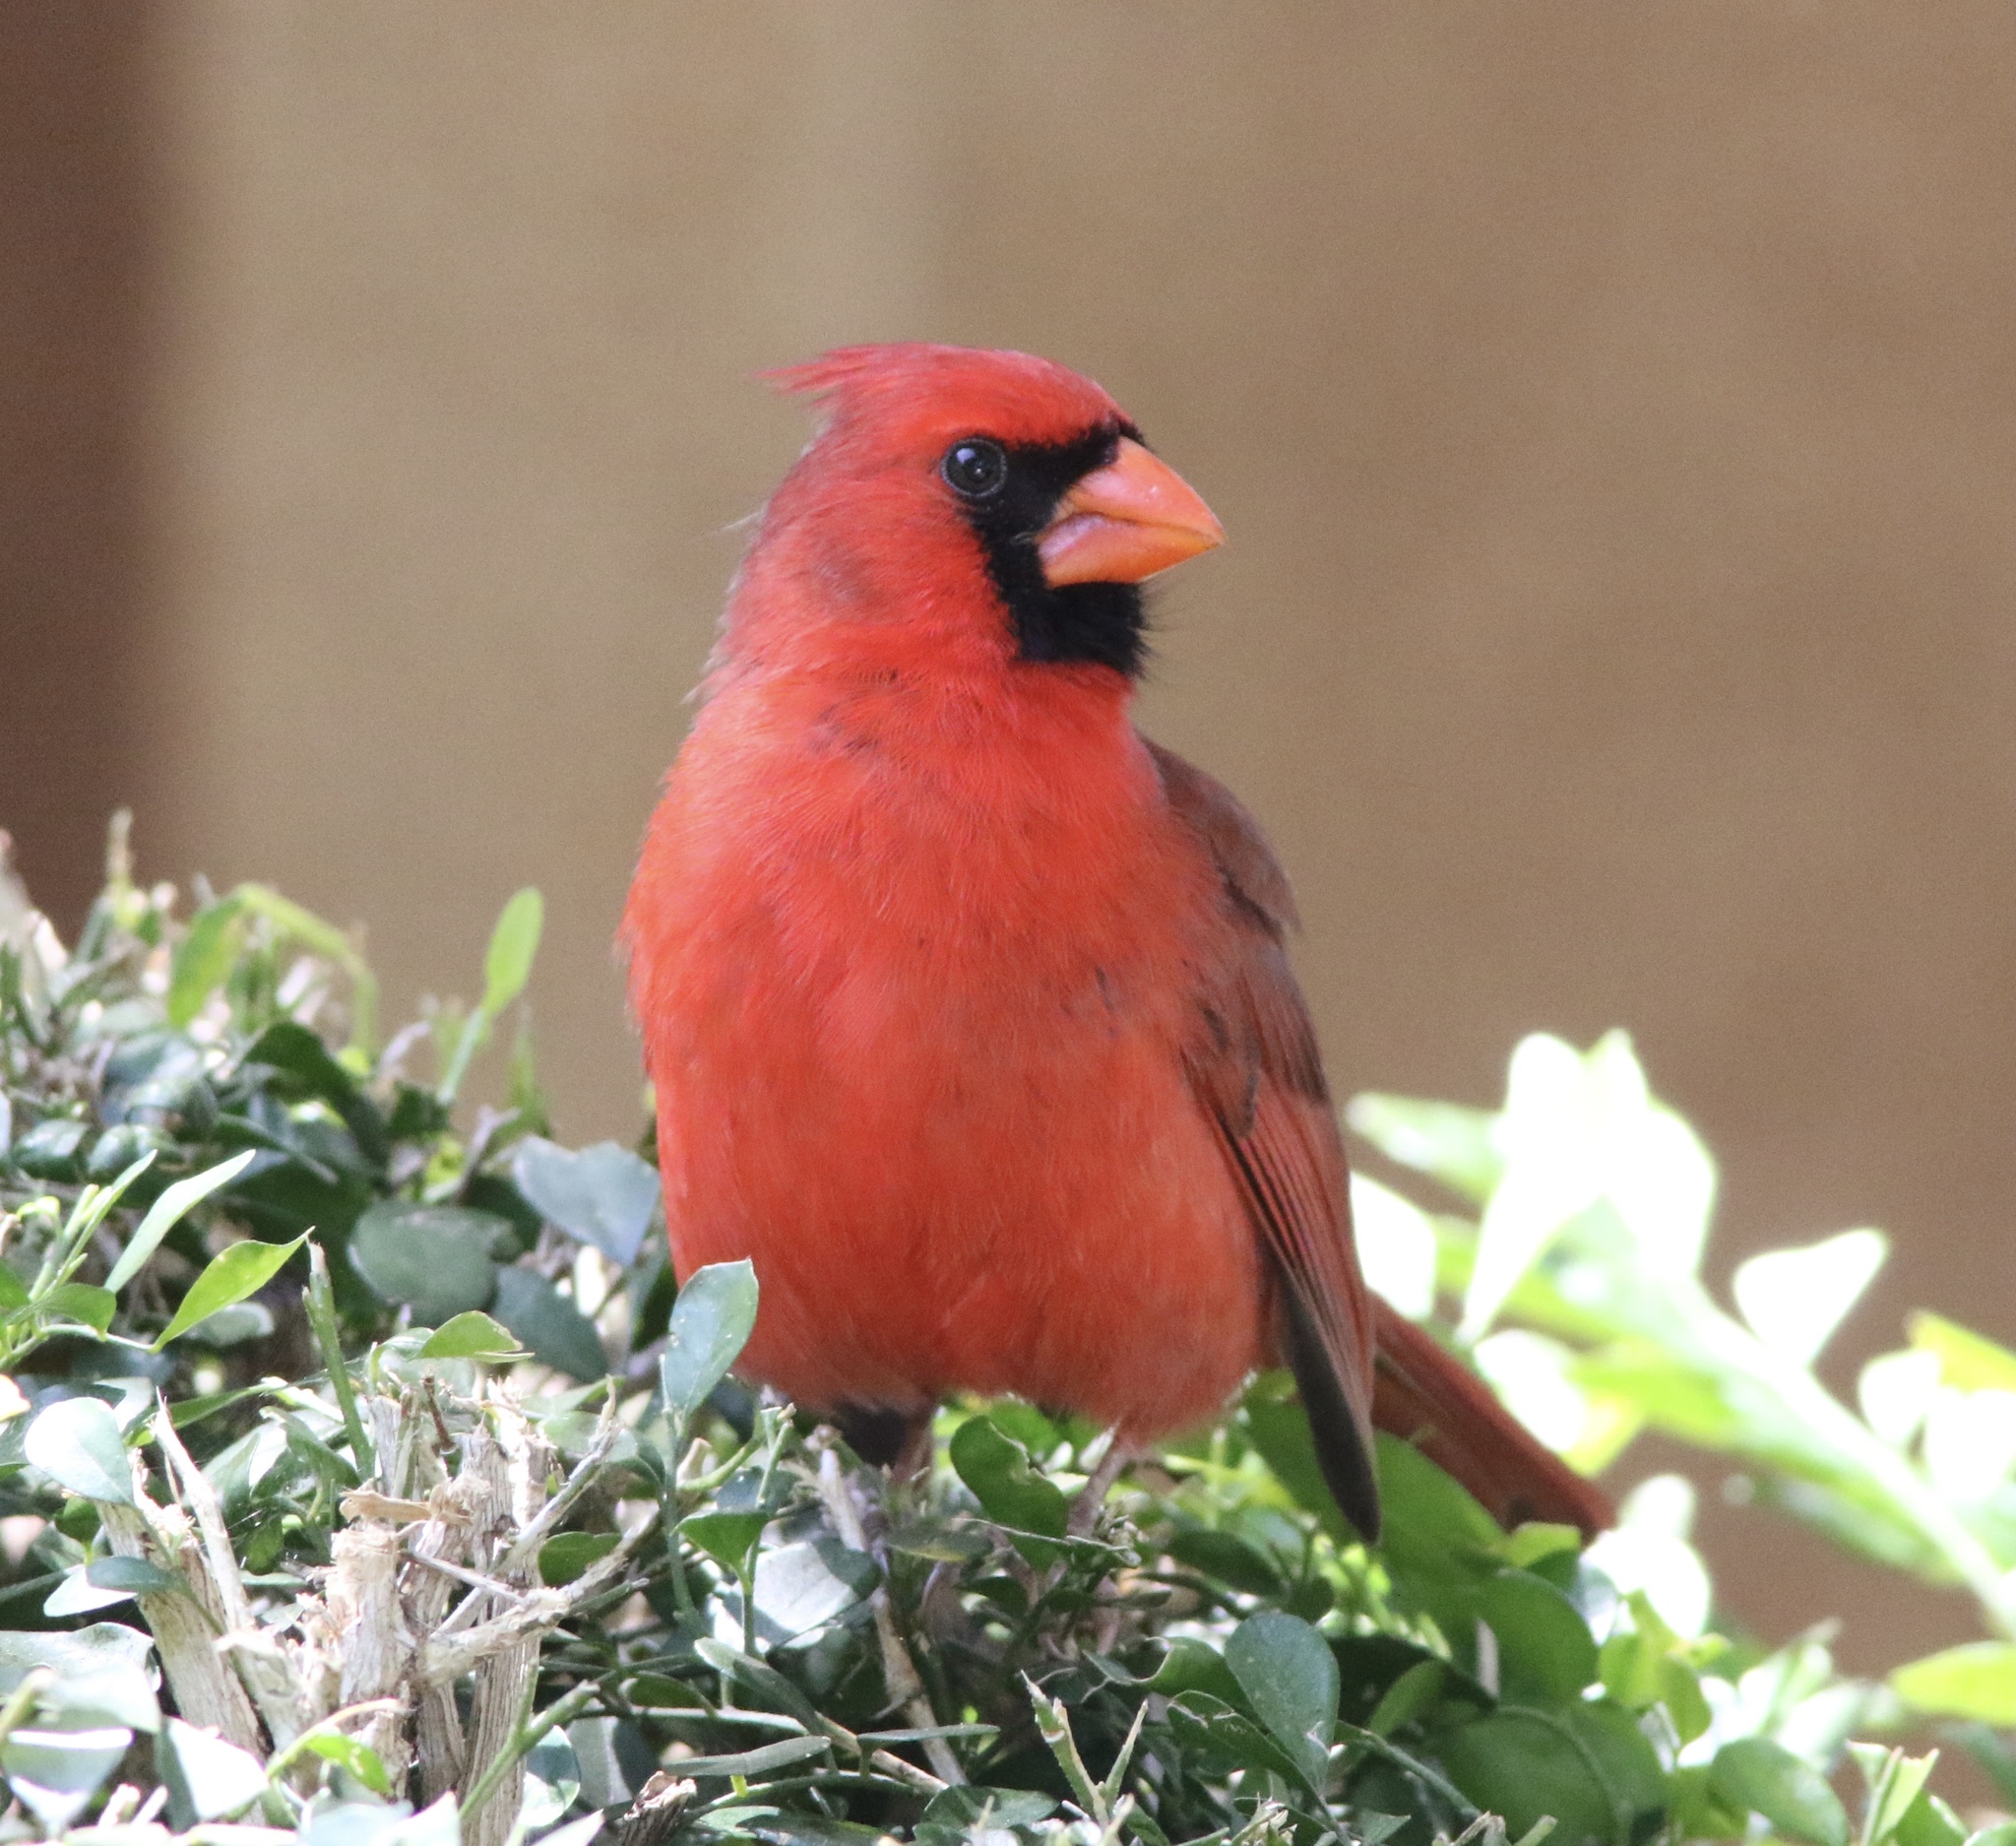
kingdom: Animalia
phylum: Chordata
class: Aves
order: Passeriformes
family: Cardinalidae
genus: Cardinalis
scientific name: Cardinalis cardinalis
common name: Northern cardinal
